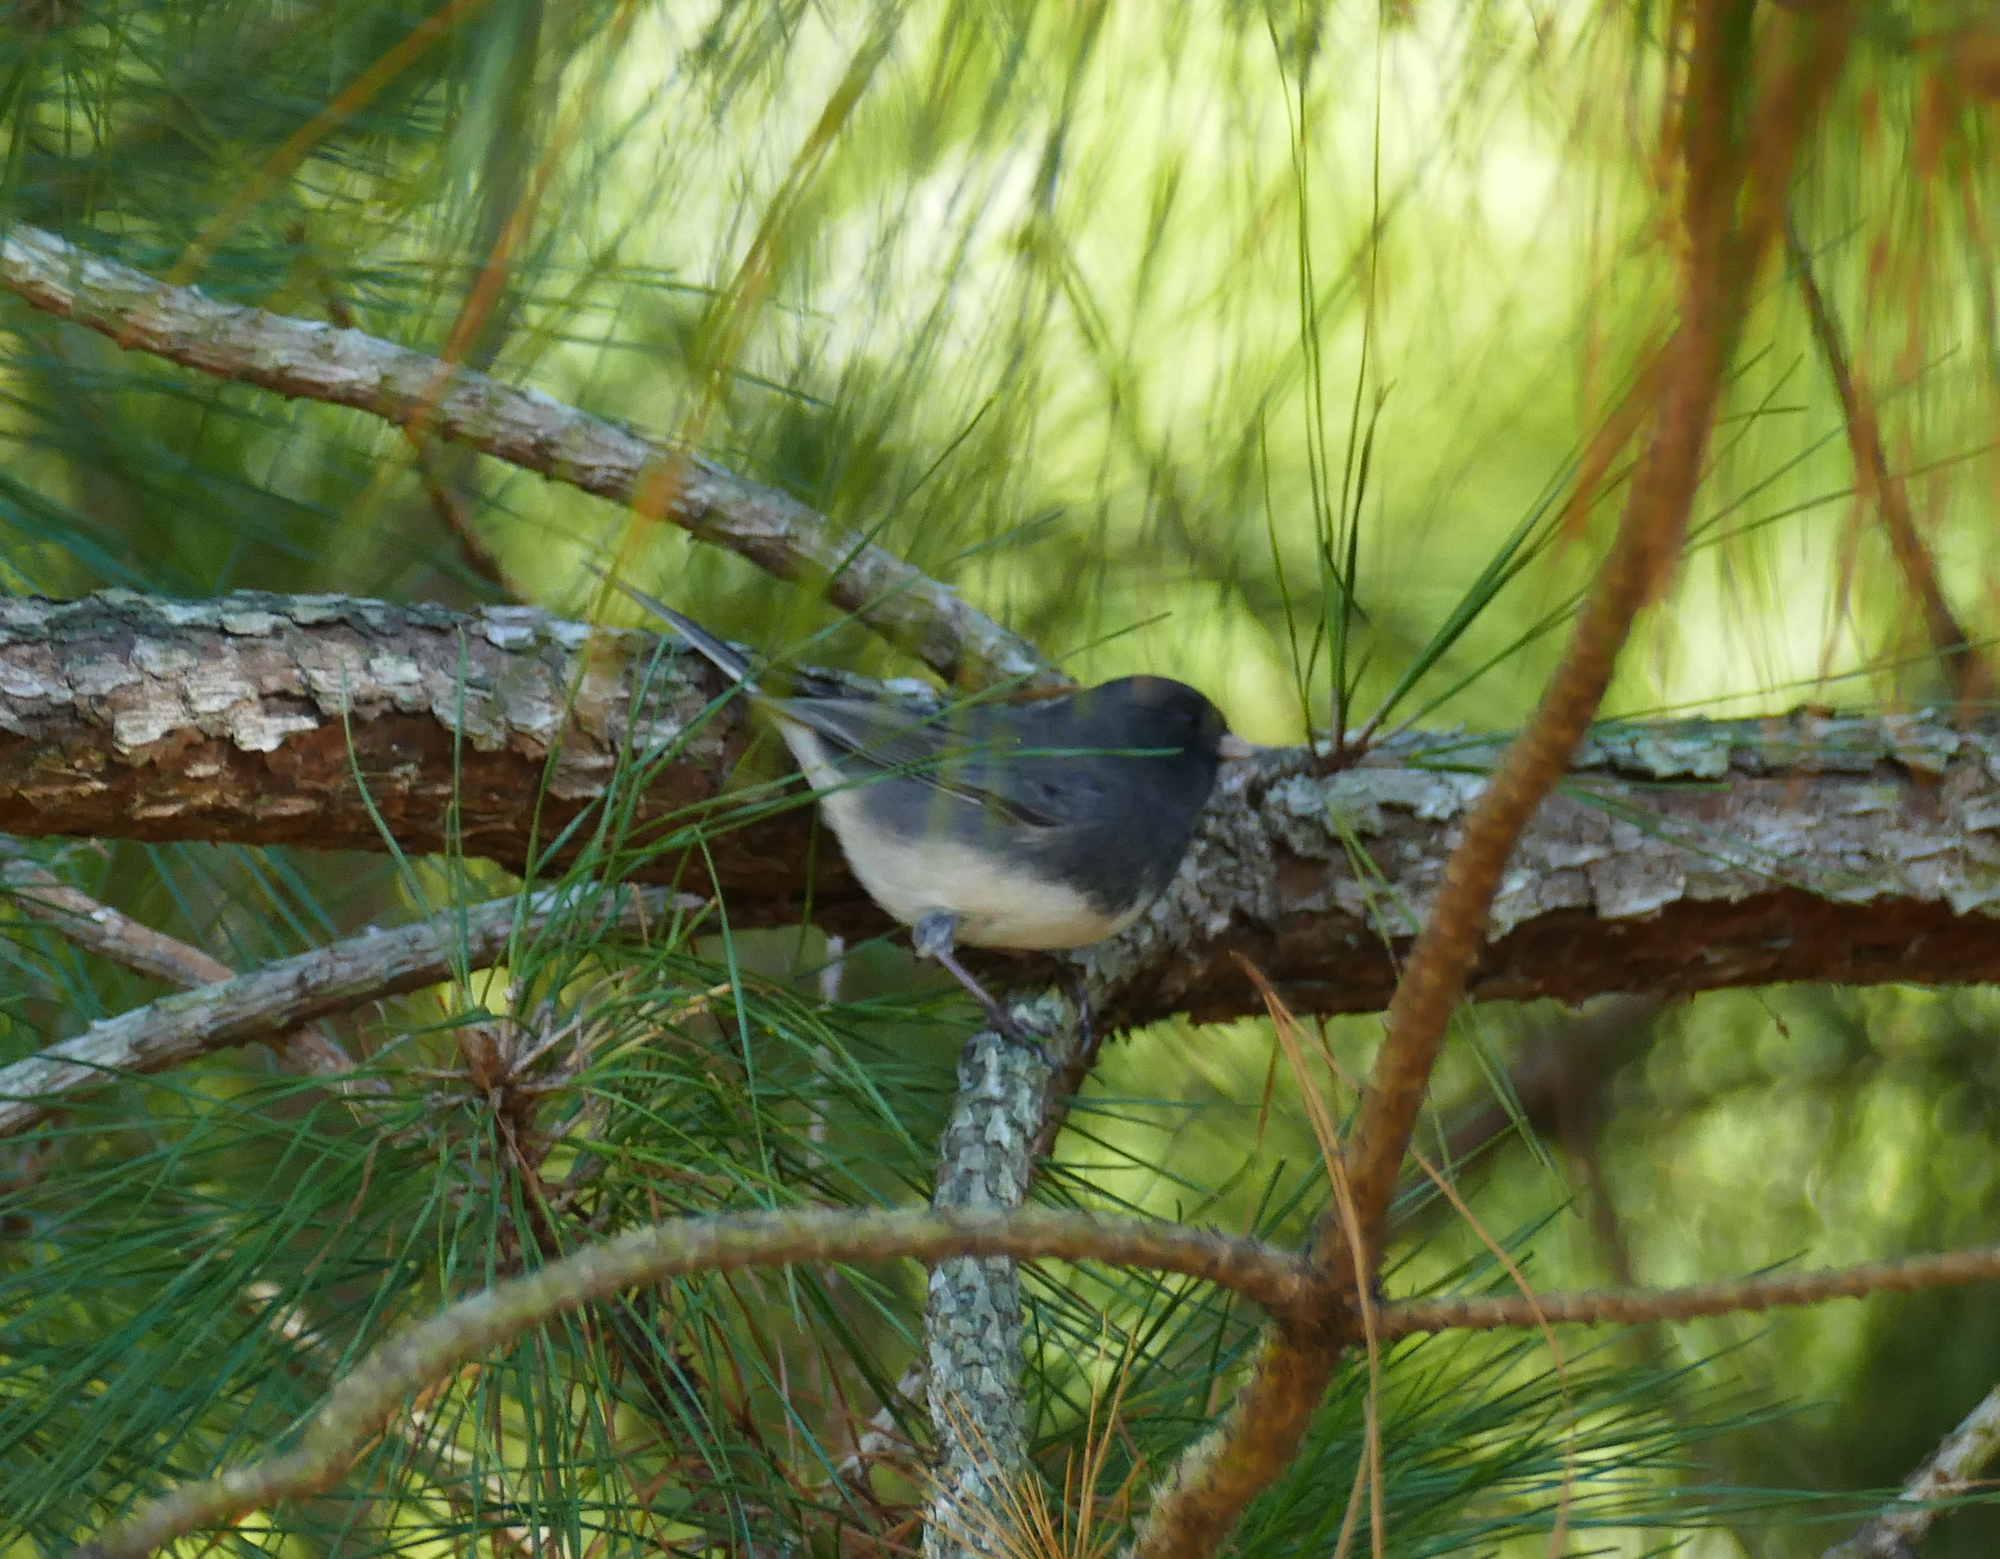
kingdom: Animalia
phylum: Chordata
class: Aves
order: Passeriformes
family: Passerellidae
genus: Junco
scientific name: Junco hyemalis
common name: Dark-eyed junco
